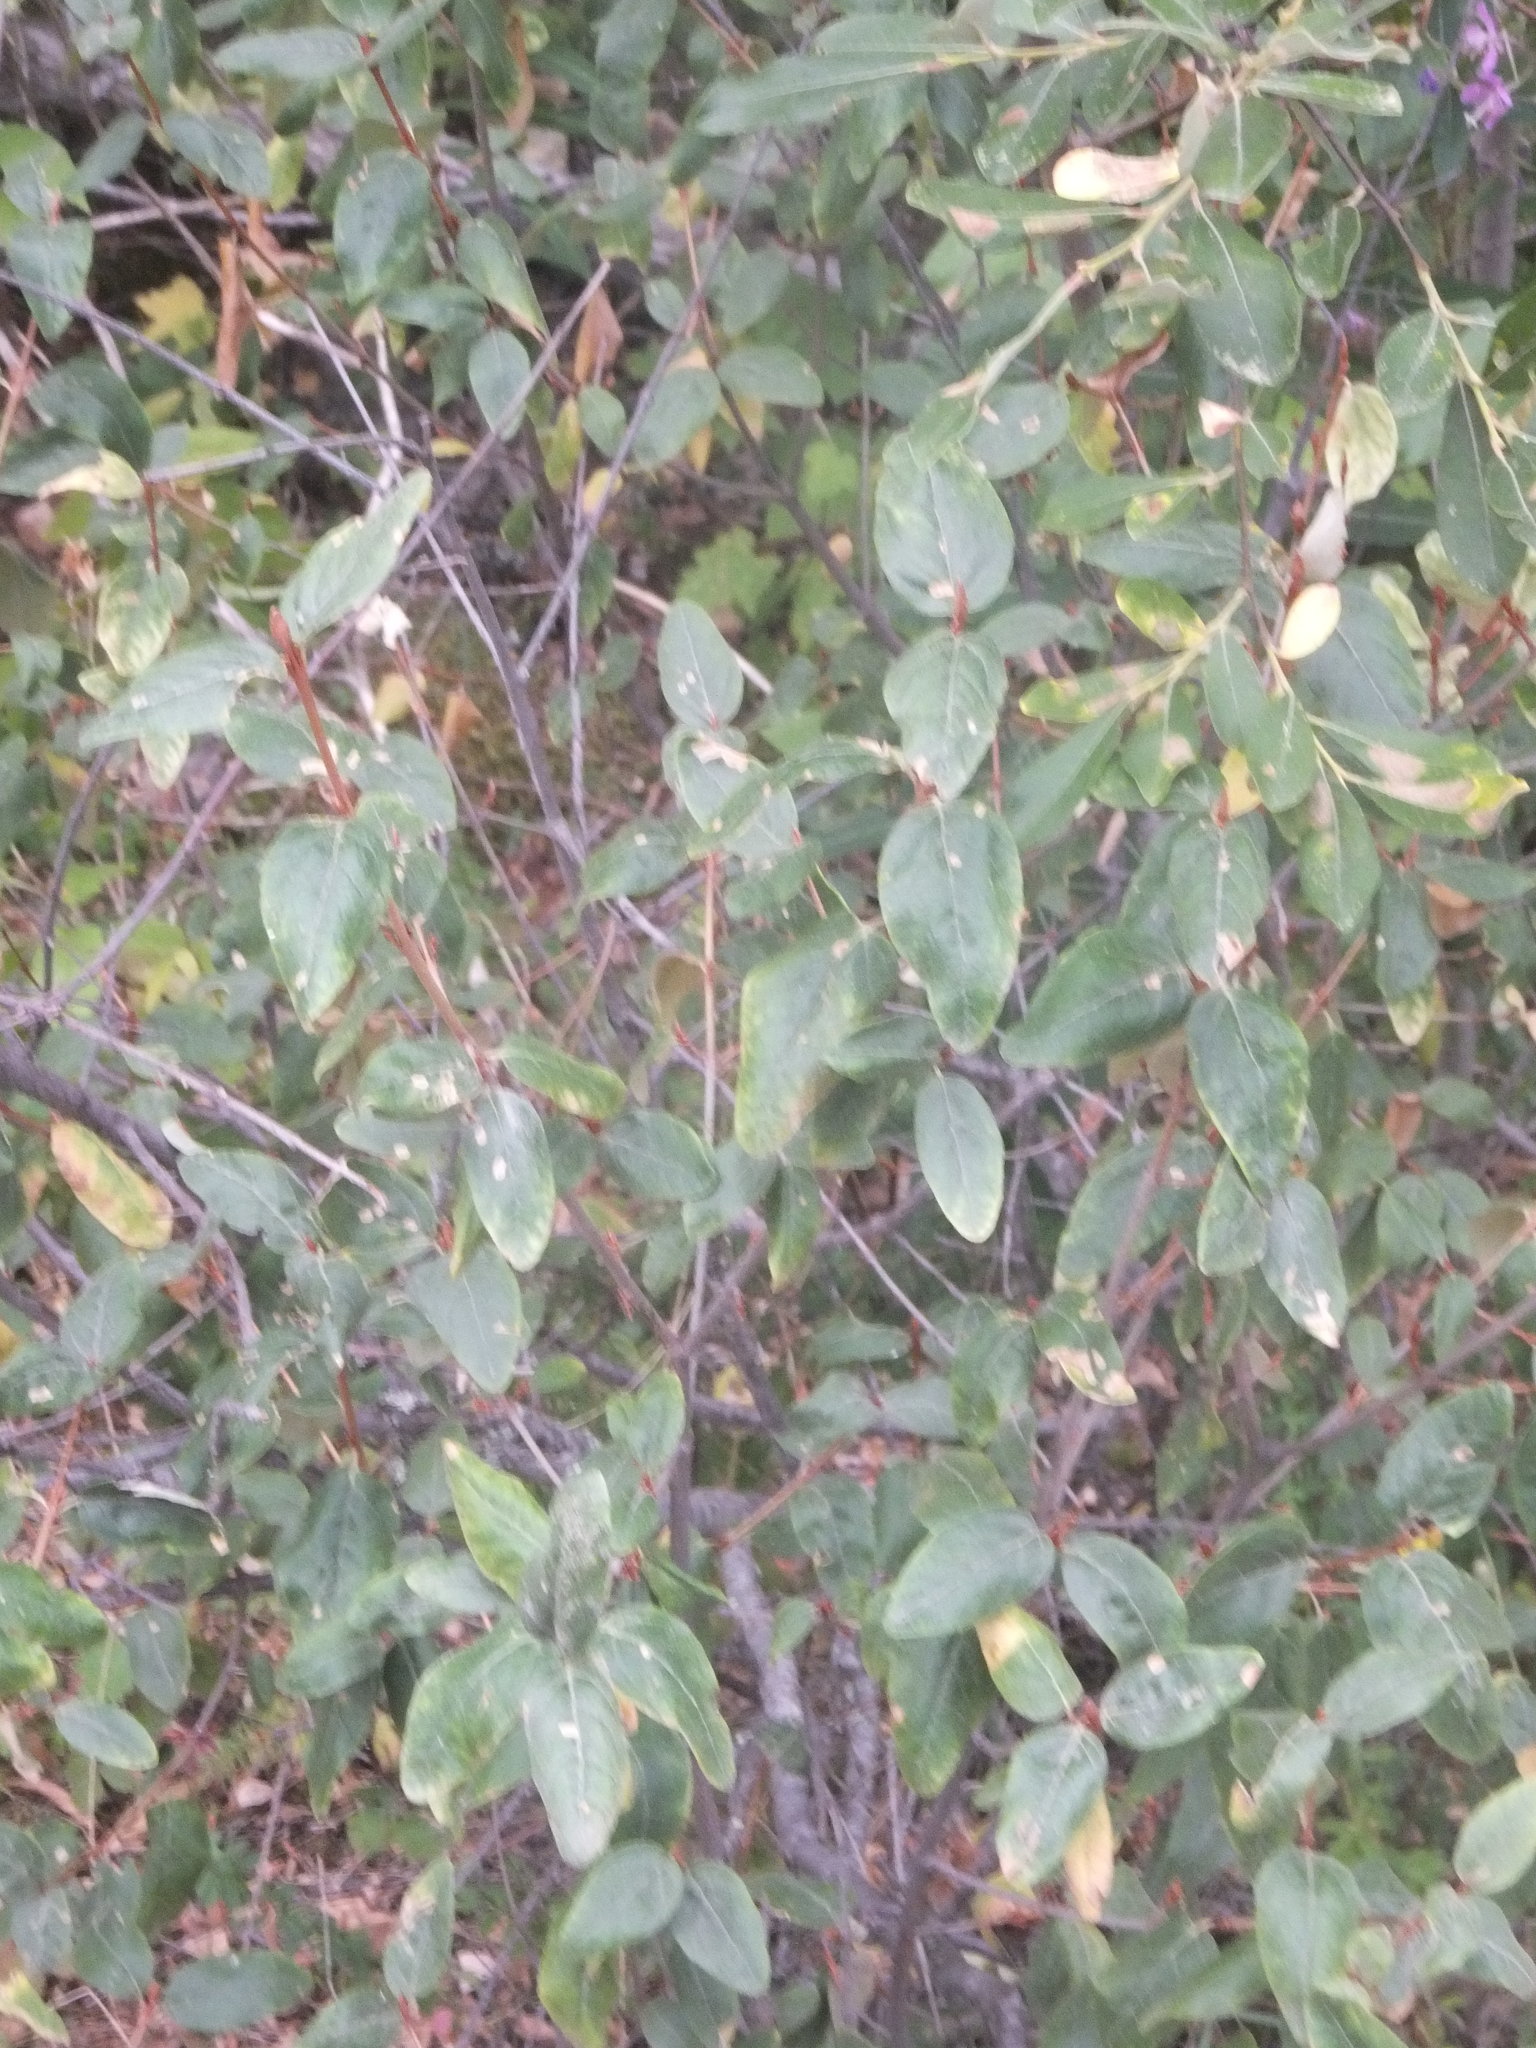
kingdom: Plantae
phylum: Tracheophyta
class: Magnoliopsida
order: Rosales
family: Elaeagnaceae
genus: Shepherdia
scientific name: Shepherdia canadensis
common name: Soapberry
